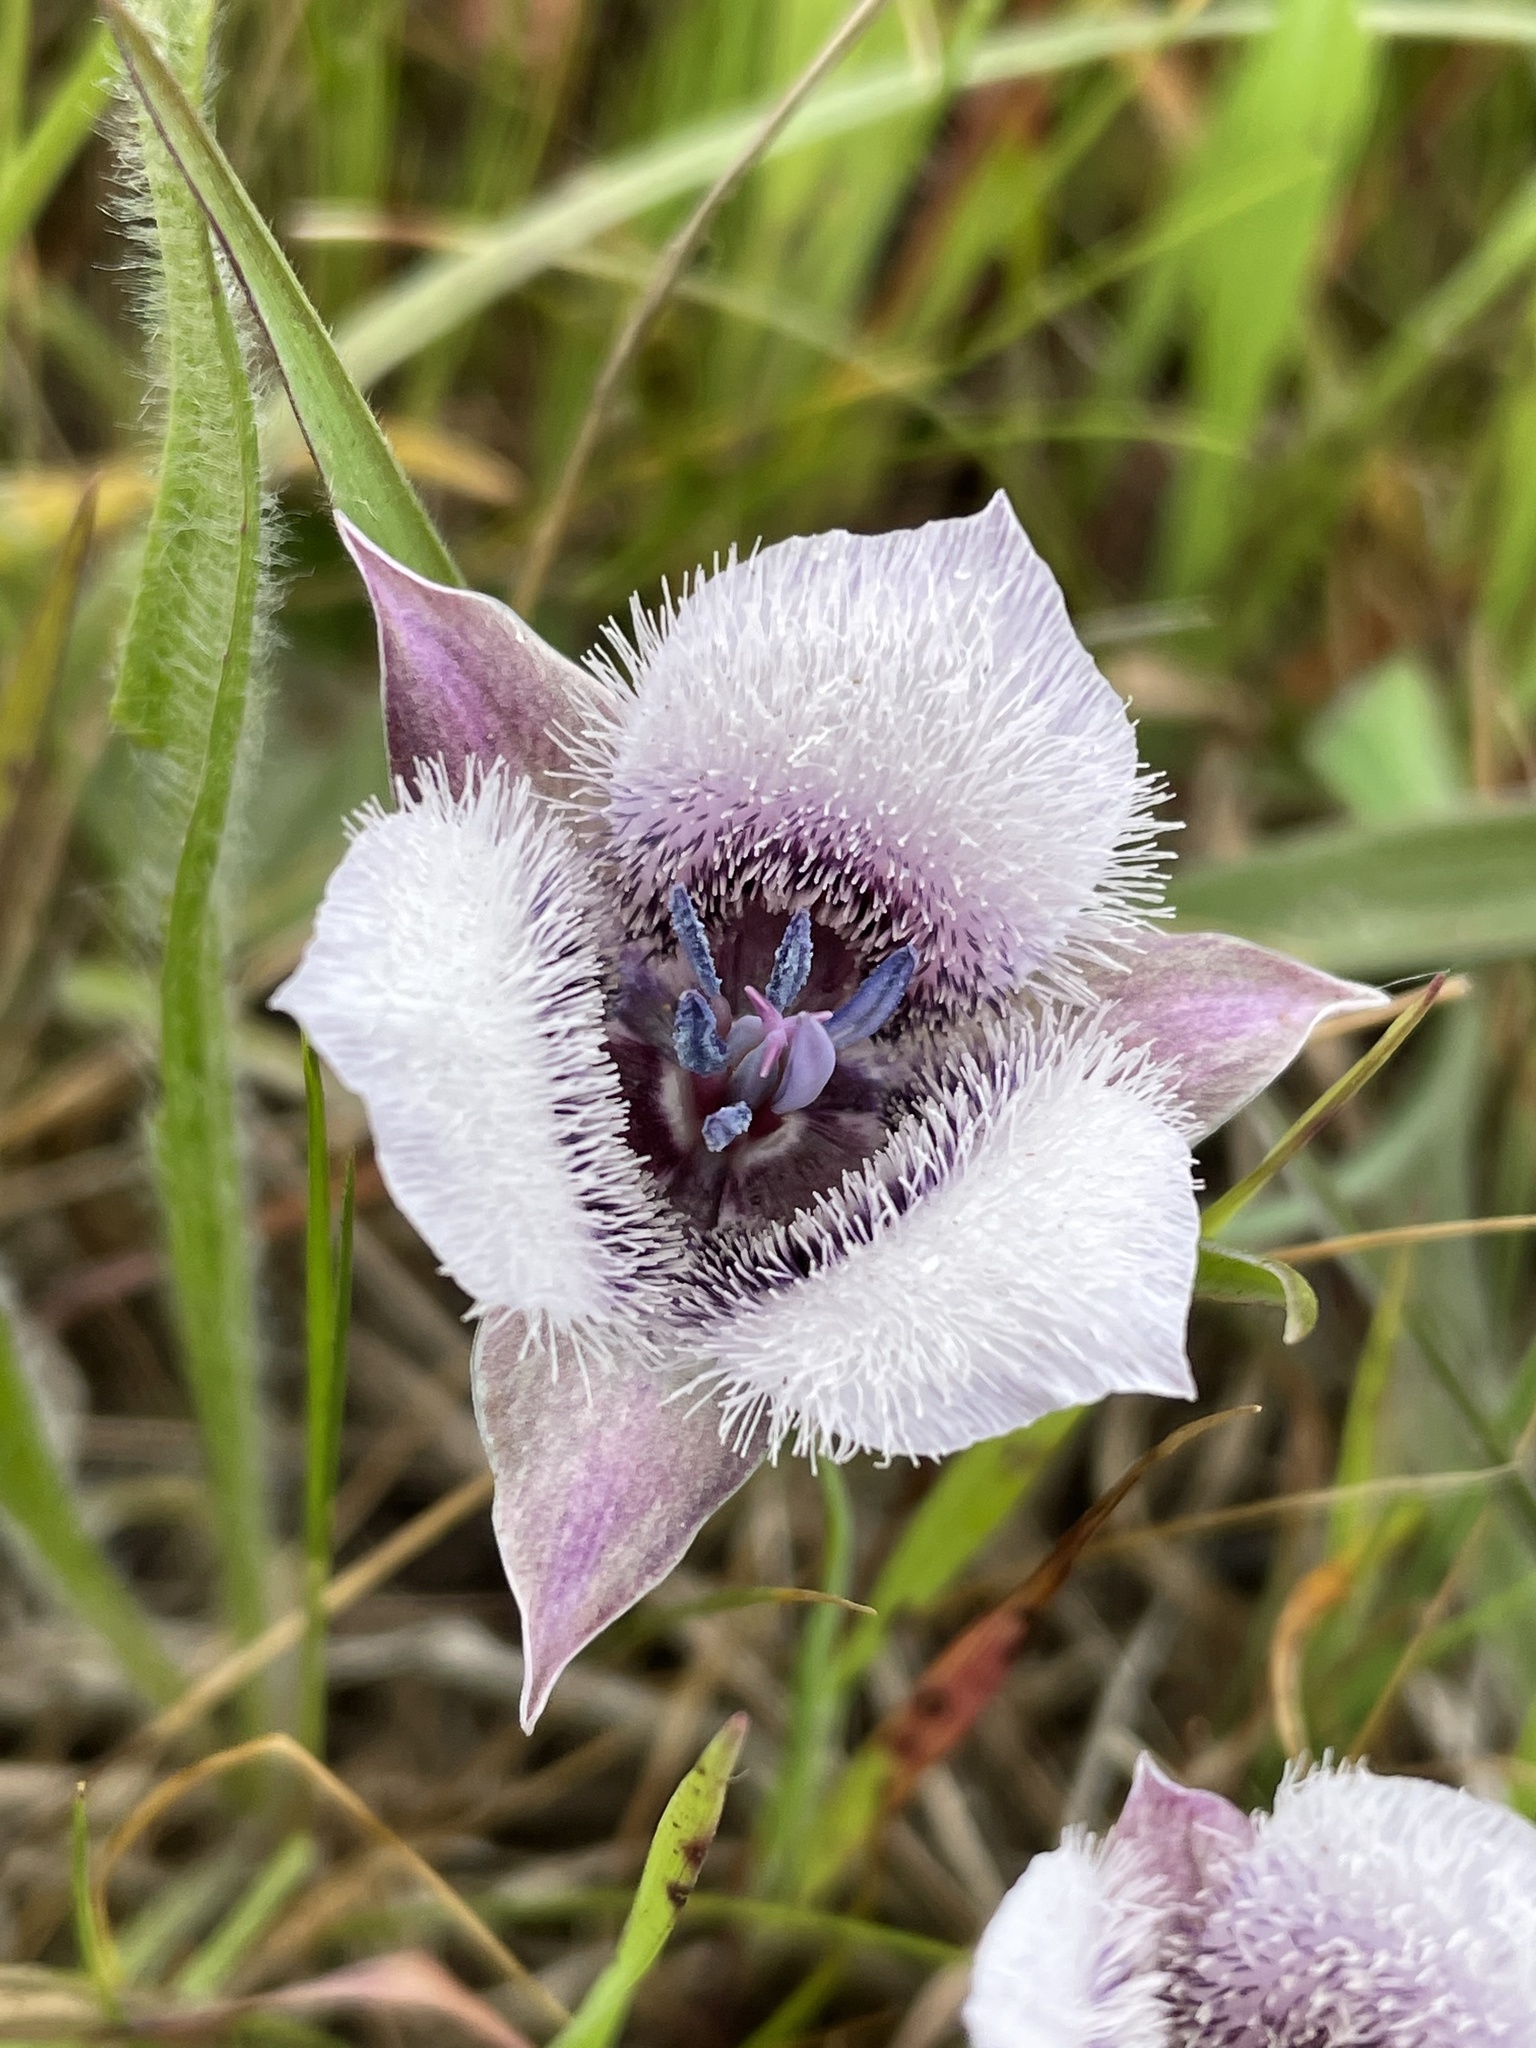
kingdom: Plantae
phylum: Tracheophyta
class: Liliopsida
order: Liliales
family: Liliaceae
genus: Calochortus
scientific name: Calochortus tolmiei
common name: Pussy-ears
